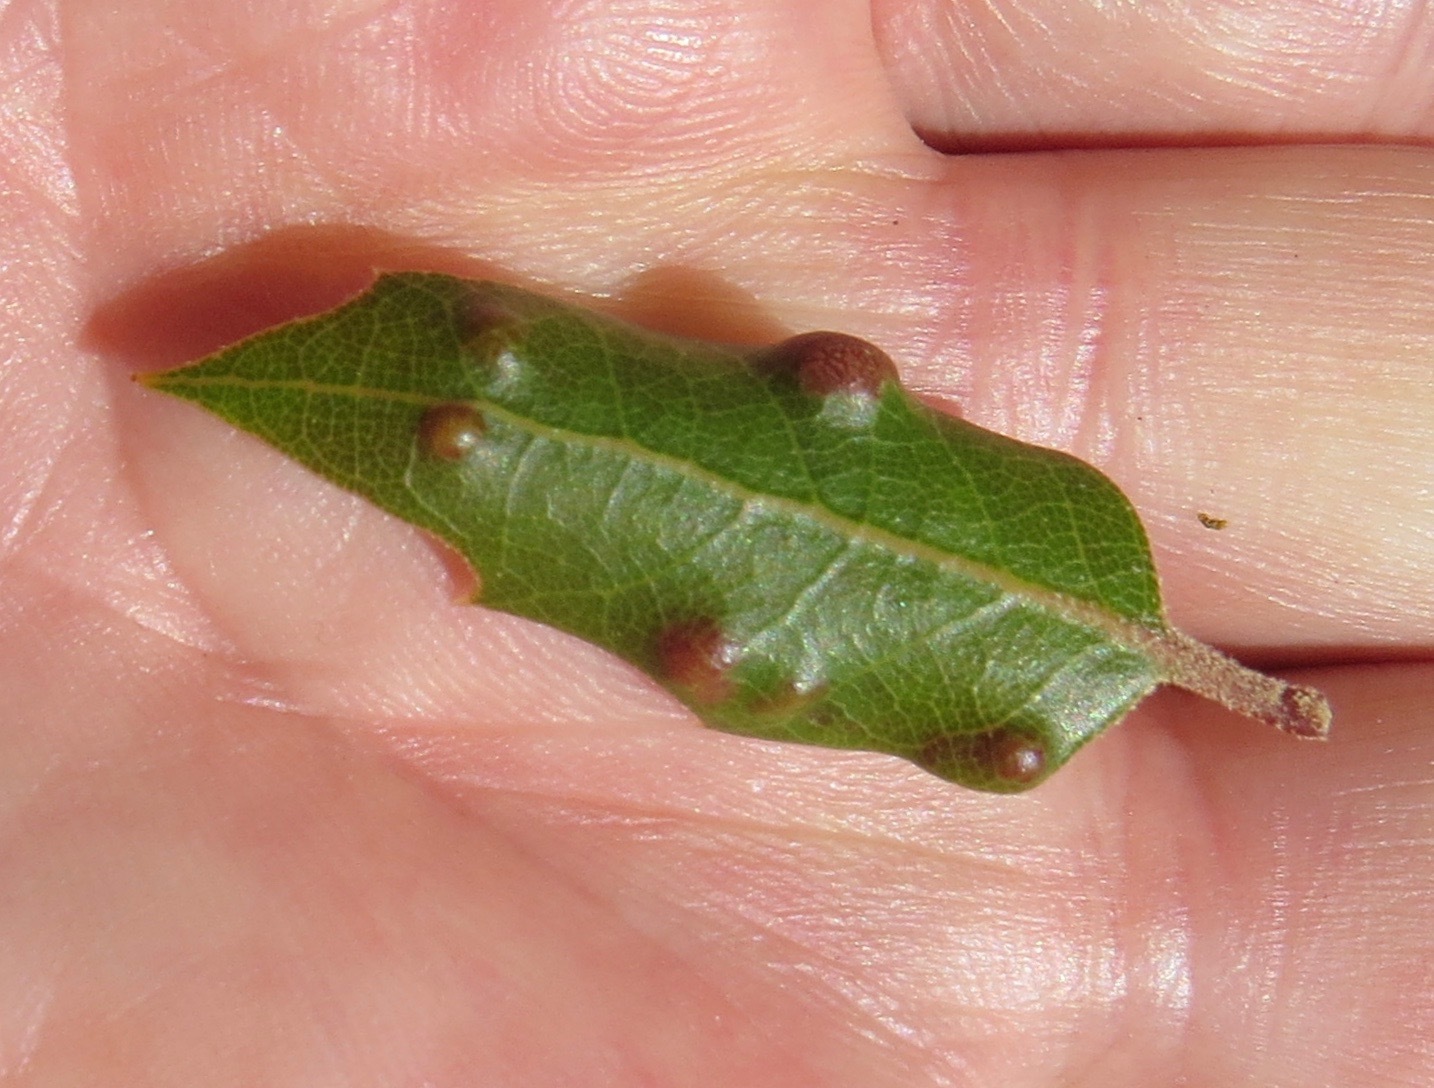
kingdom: Animalia
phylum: Arthropoda
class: Arachnida
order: Trombidiformes
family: Eriophyidae
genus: Aceria
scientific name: Aceria
